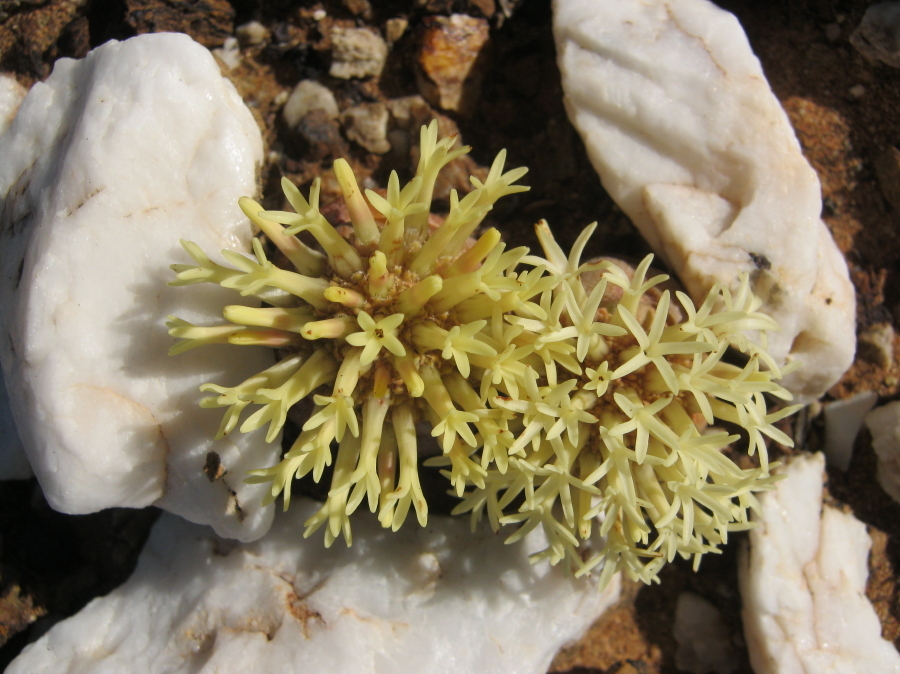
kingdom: Plantae
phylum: Tracheophyta
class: Magnoliopsida
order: Saxifragales
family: Crassulaceae
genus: Crassula
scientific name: Crassula columnaris
